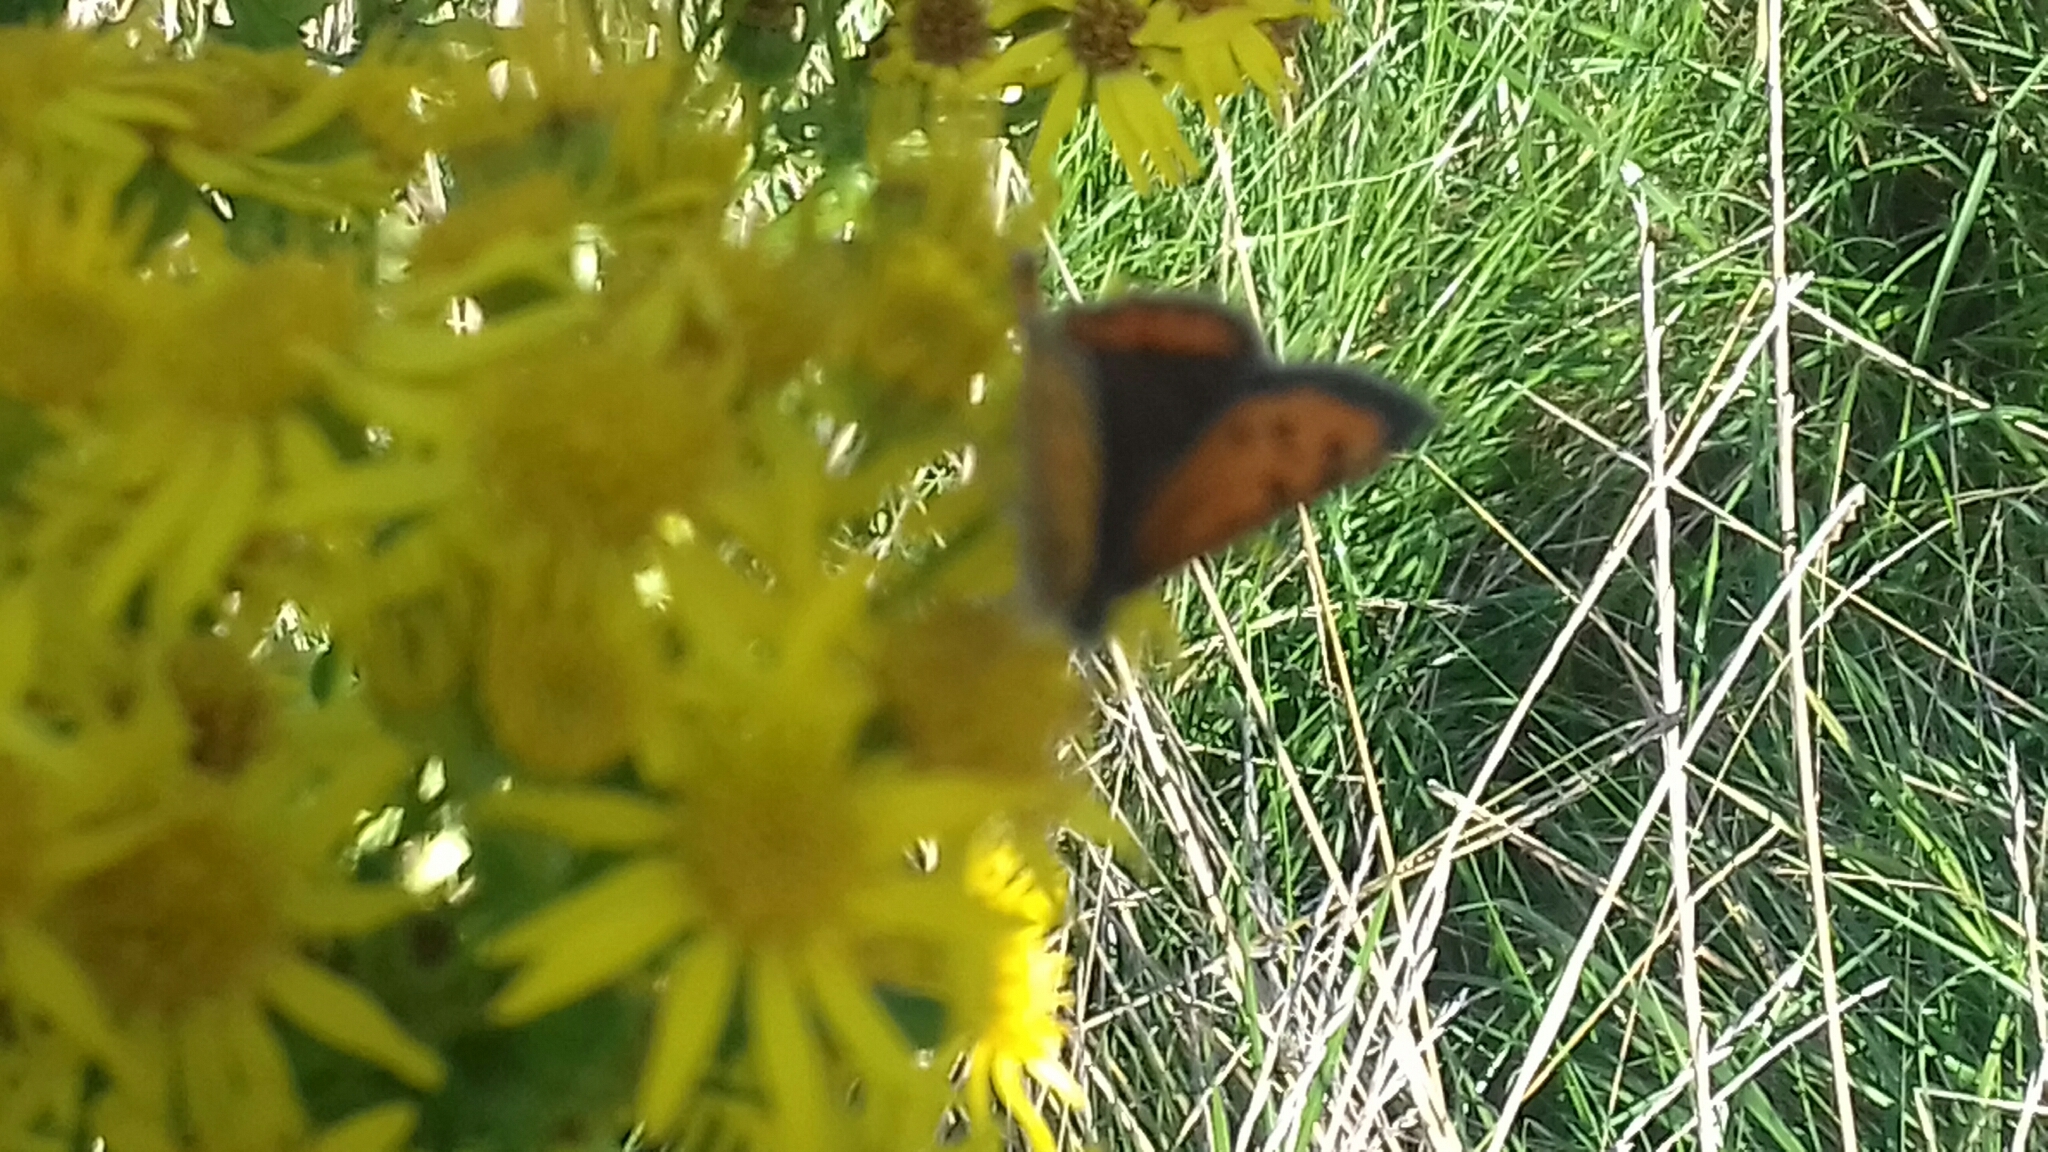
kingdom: Animalia
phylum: Arthropoda
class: Insecta
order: Lepidoptera
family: Lycaenidae
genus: Lycaena
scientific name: Lycaena phlaeas
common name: Small copper
